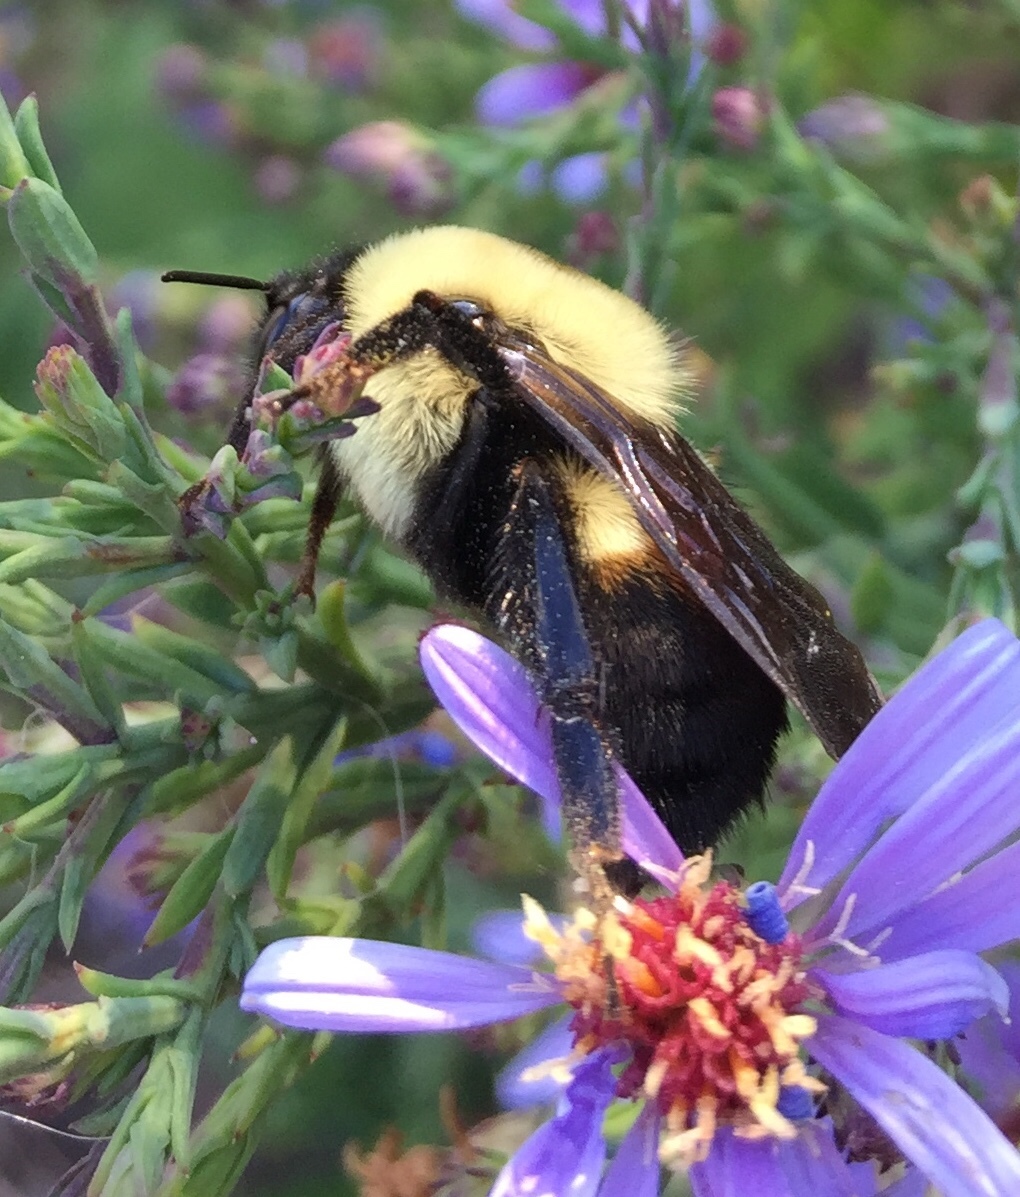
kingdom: Animalia
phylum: Arthropoda
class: Insecta
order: Hymenoptera
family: Apidae
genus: Bombus
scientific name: Bombus griseocollis
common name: Brown-belted bumble bee
